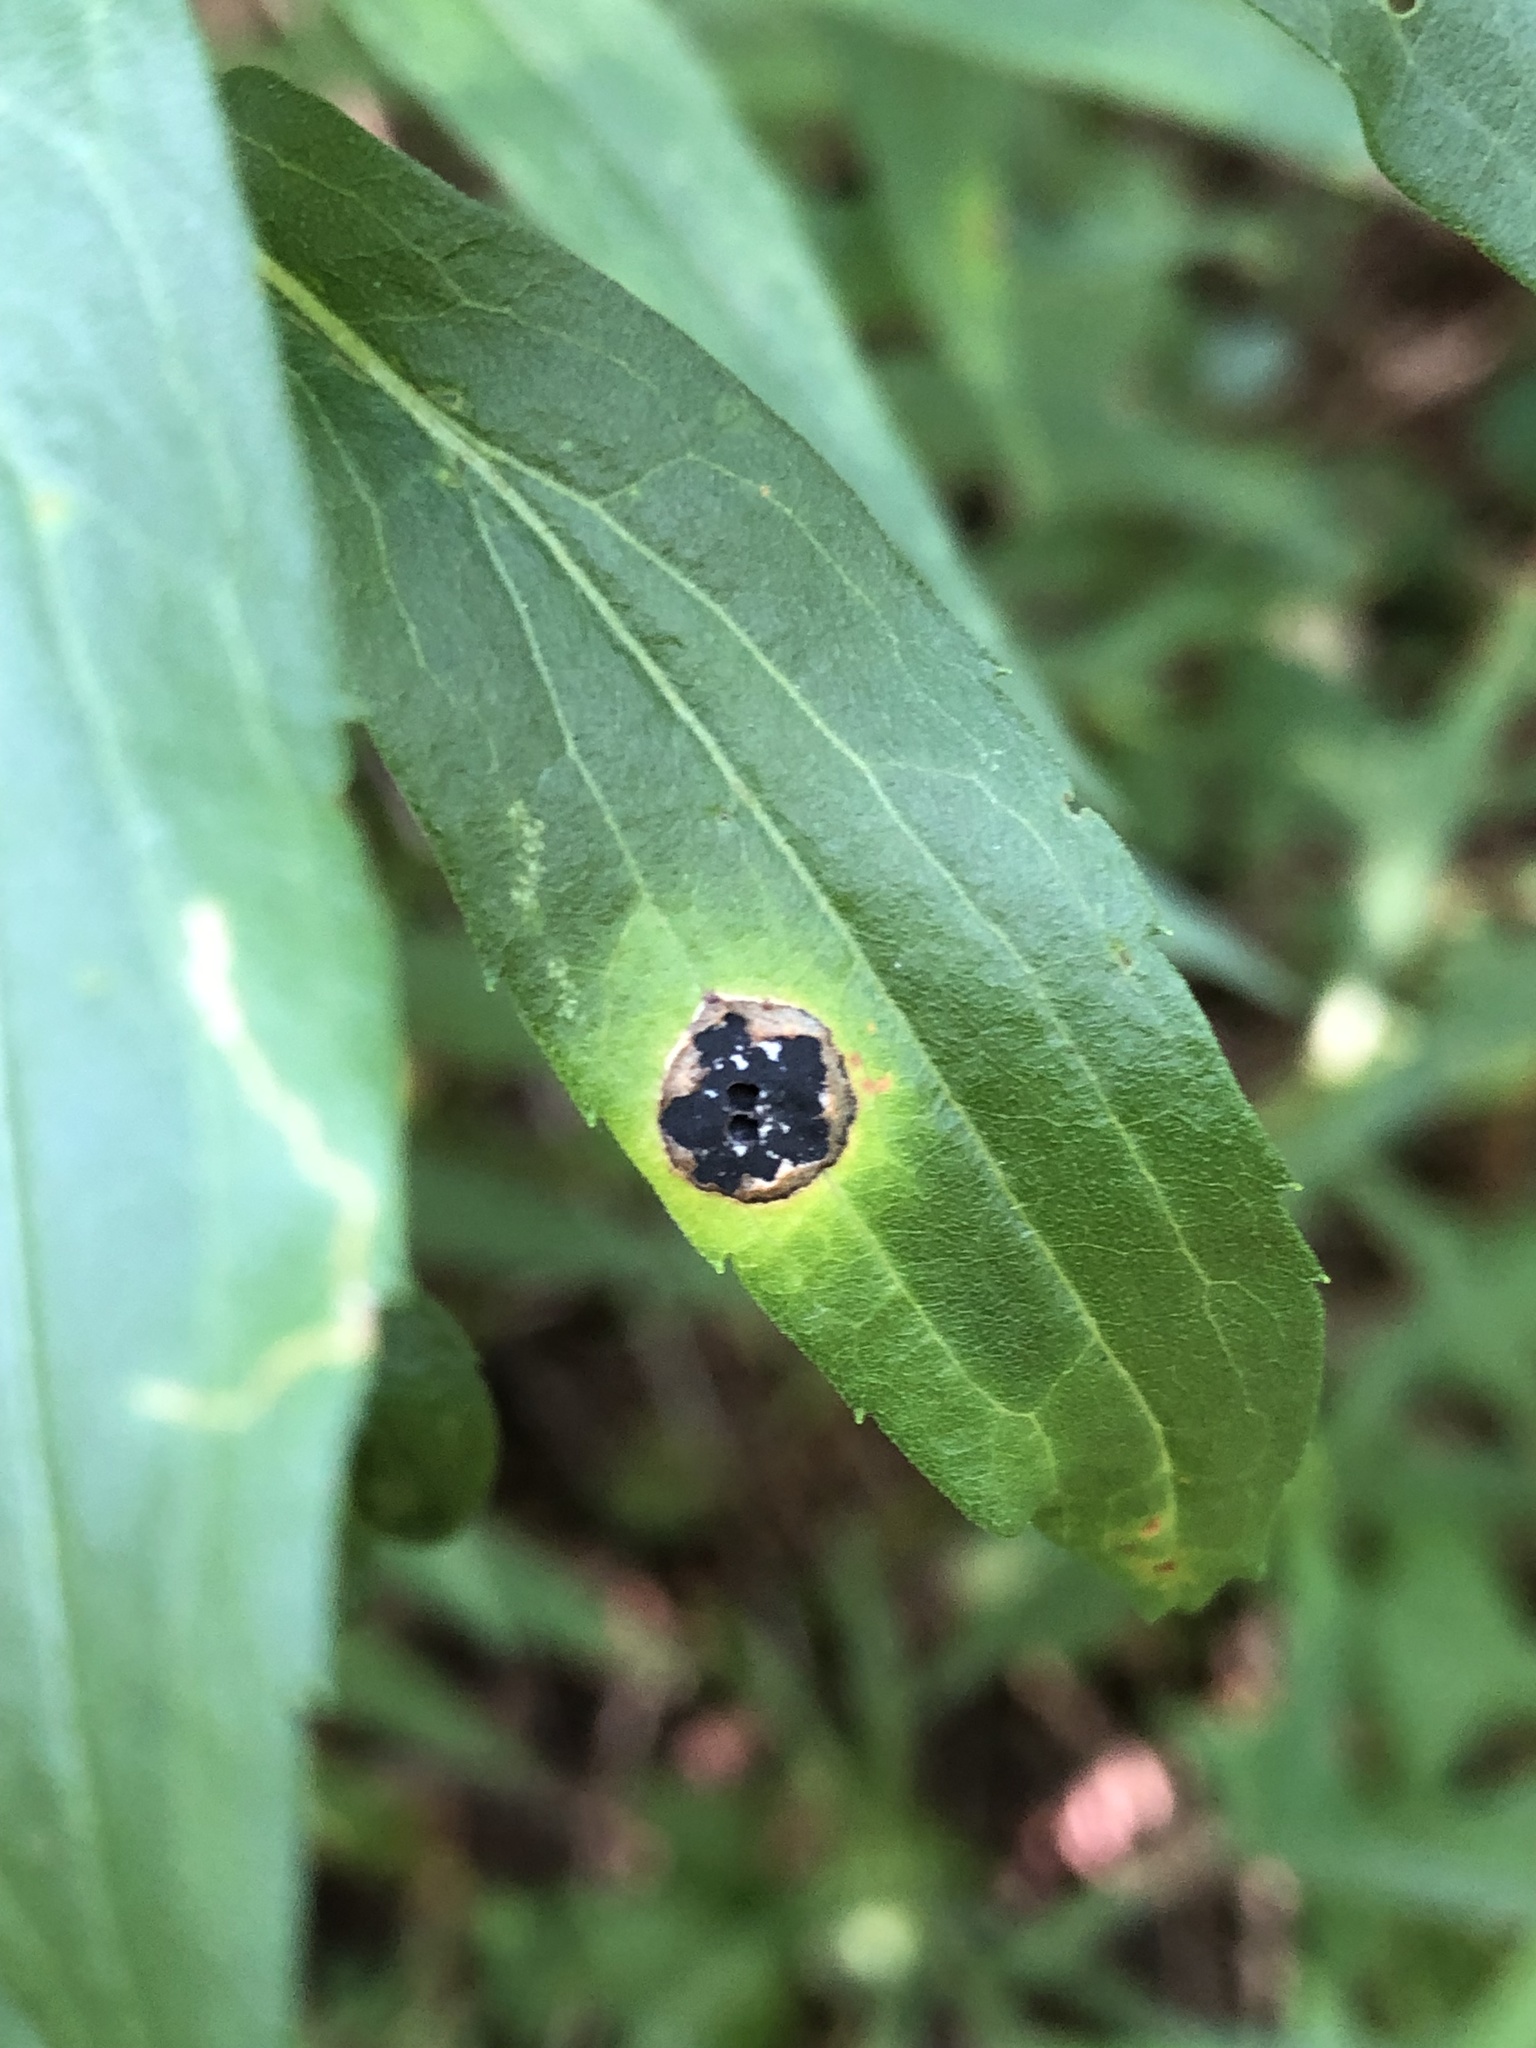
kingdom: Animalia
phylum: Arthropoda
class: Insecta
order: Diptera
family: Cecidomyiidae
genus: Asteromyia
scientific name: Asteromyia carbonifera
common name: Carbonifera goldenrod gall midge
